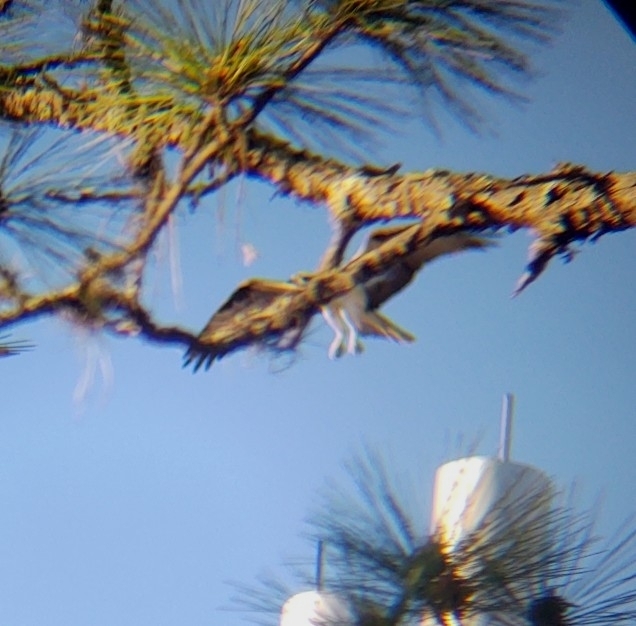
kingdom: Animalia
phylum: Chordata
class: Aves
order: Accipitriformes
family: Pandionidae
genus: Pandion
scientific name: Pandion haliaetus
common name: Osprey
